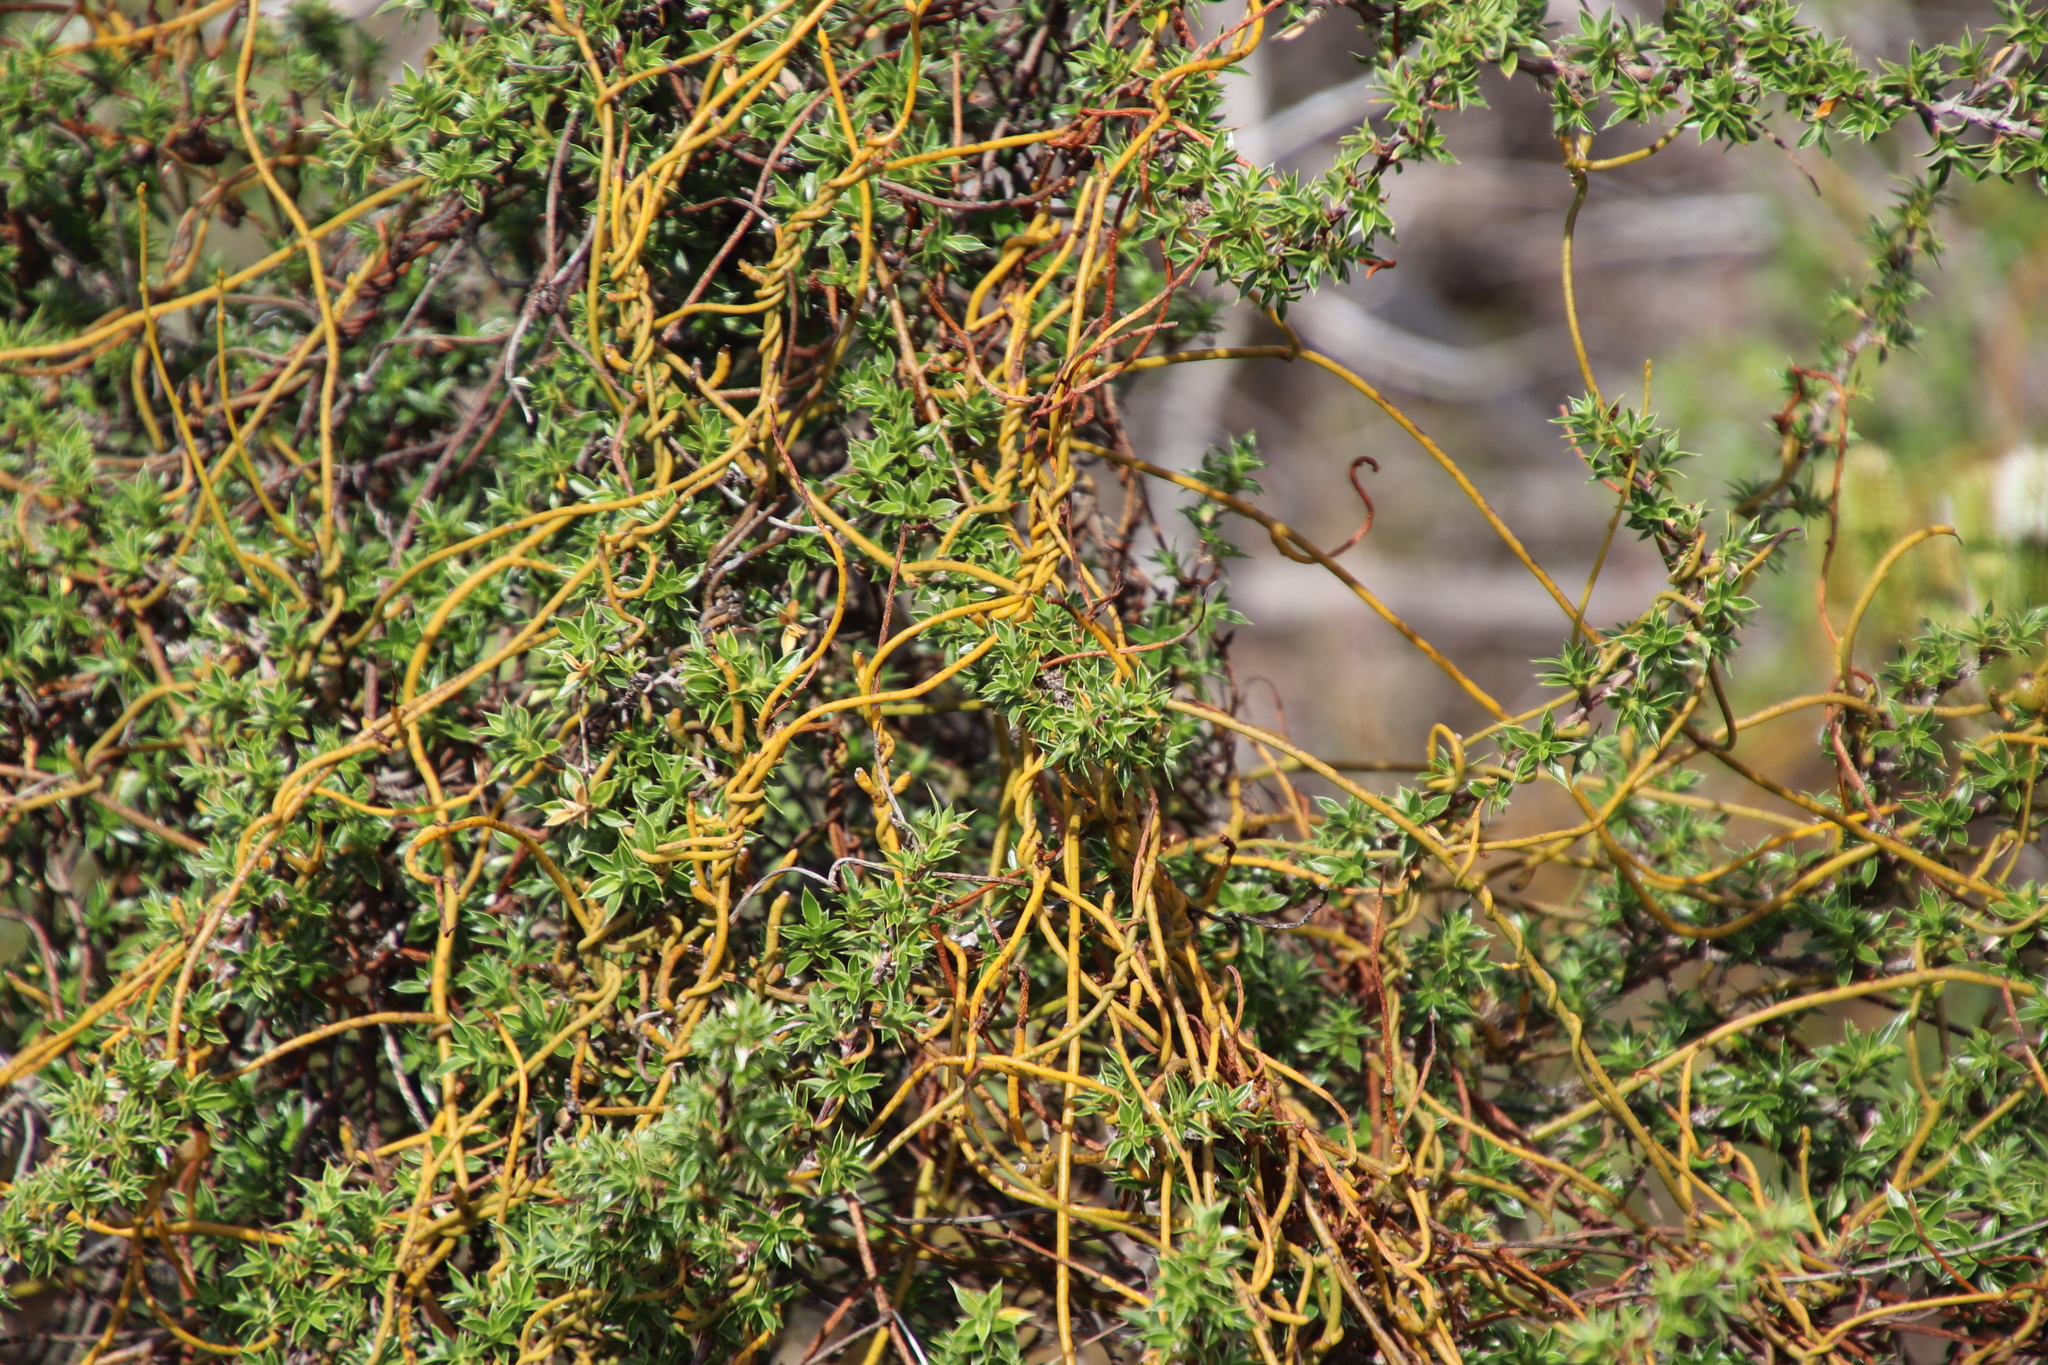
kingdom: Plantae
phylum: Tracheophyta
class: Magnoliopsida
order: Laurales
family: Lauraceae
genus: Cassytha
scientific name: Cassytha ciliolata
